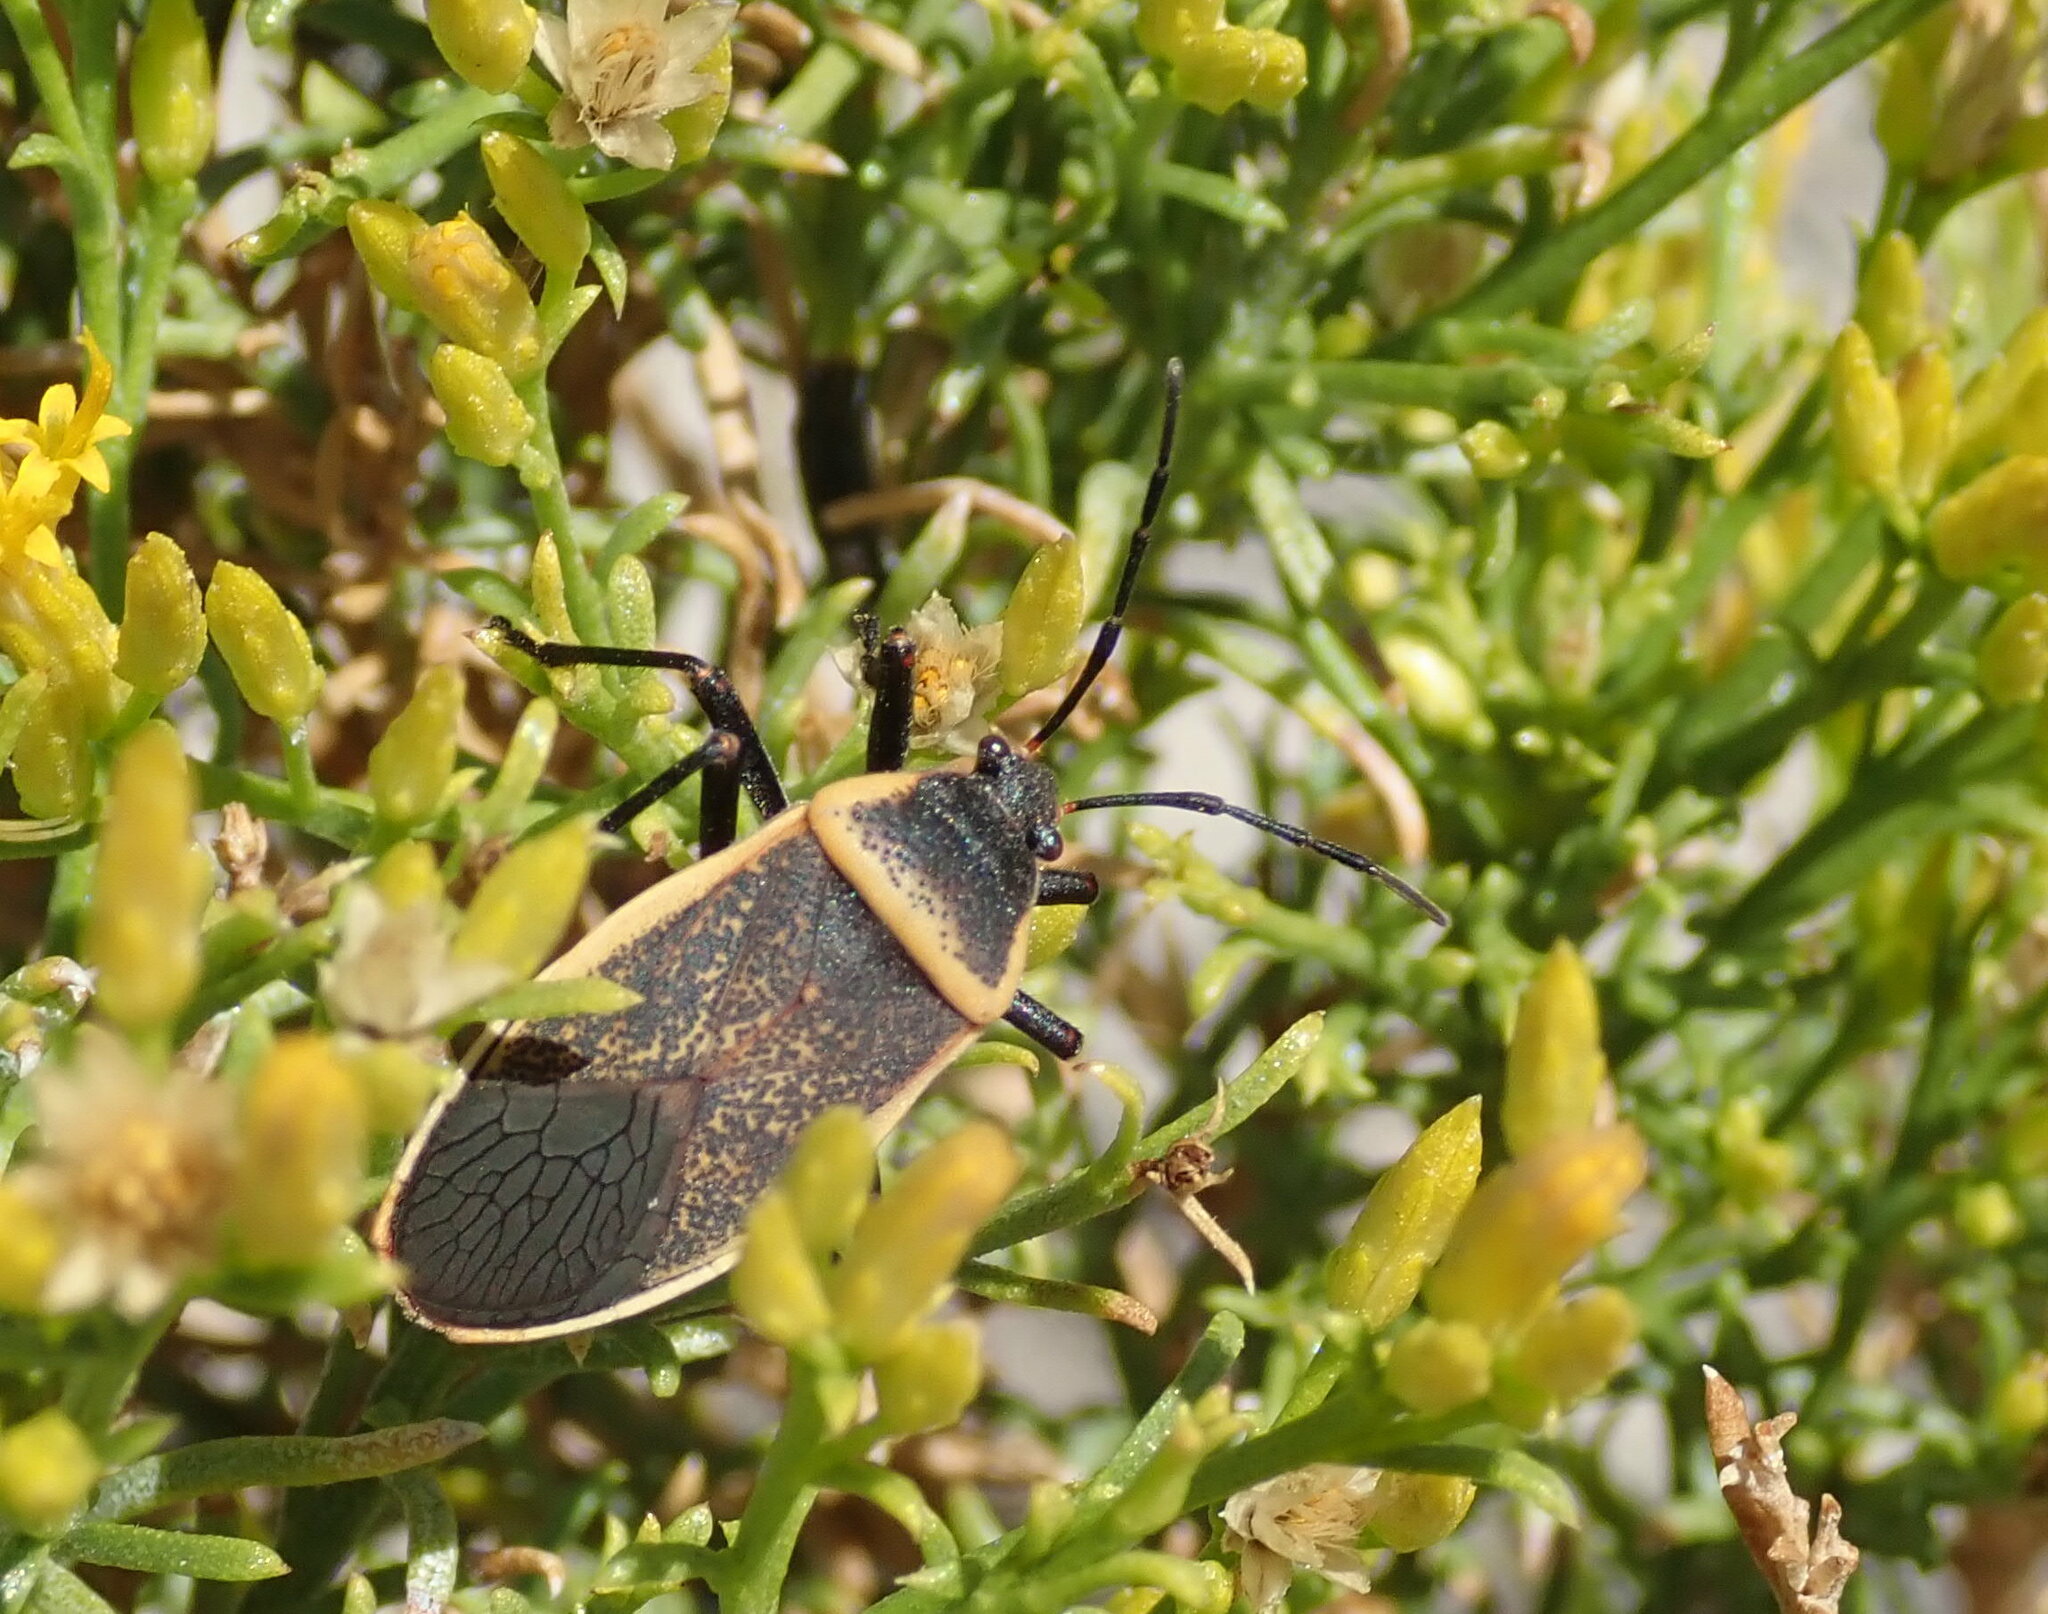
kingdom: Animalia
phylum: Arthropoda
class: Insecta
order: Hemiptera
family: Largidae
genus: Largus
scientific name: Largus californicus
